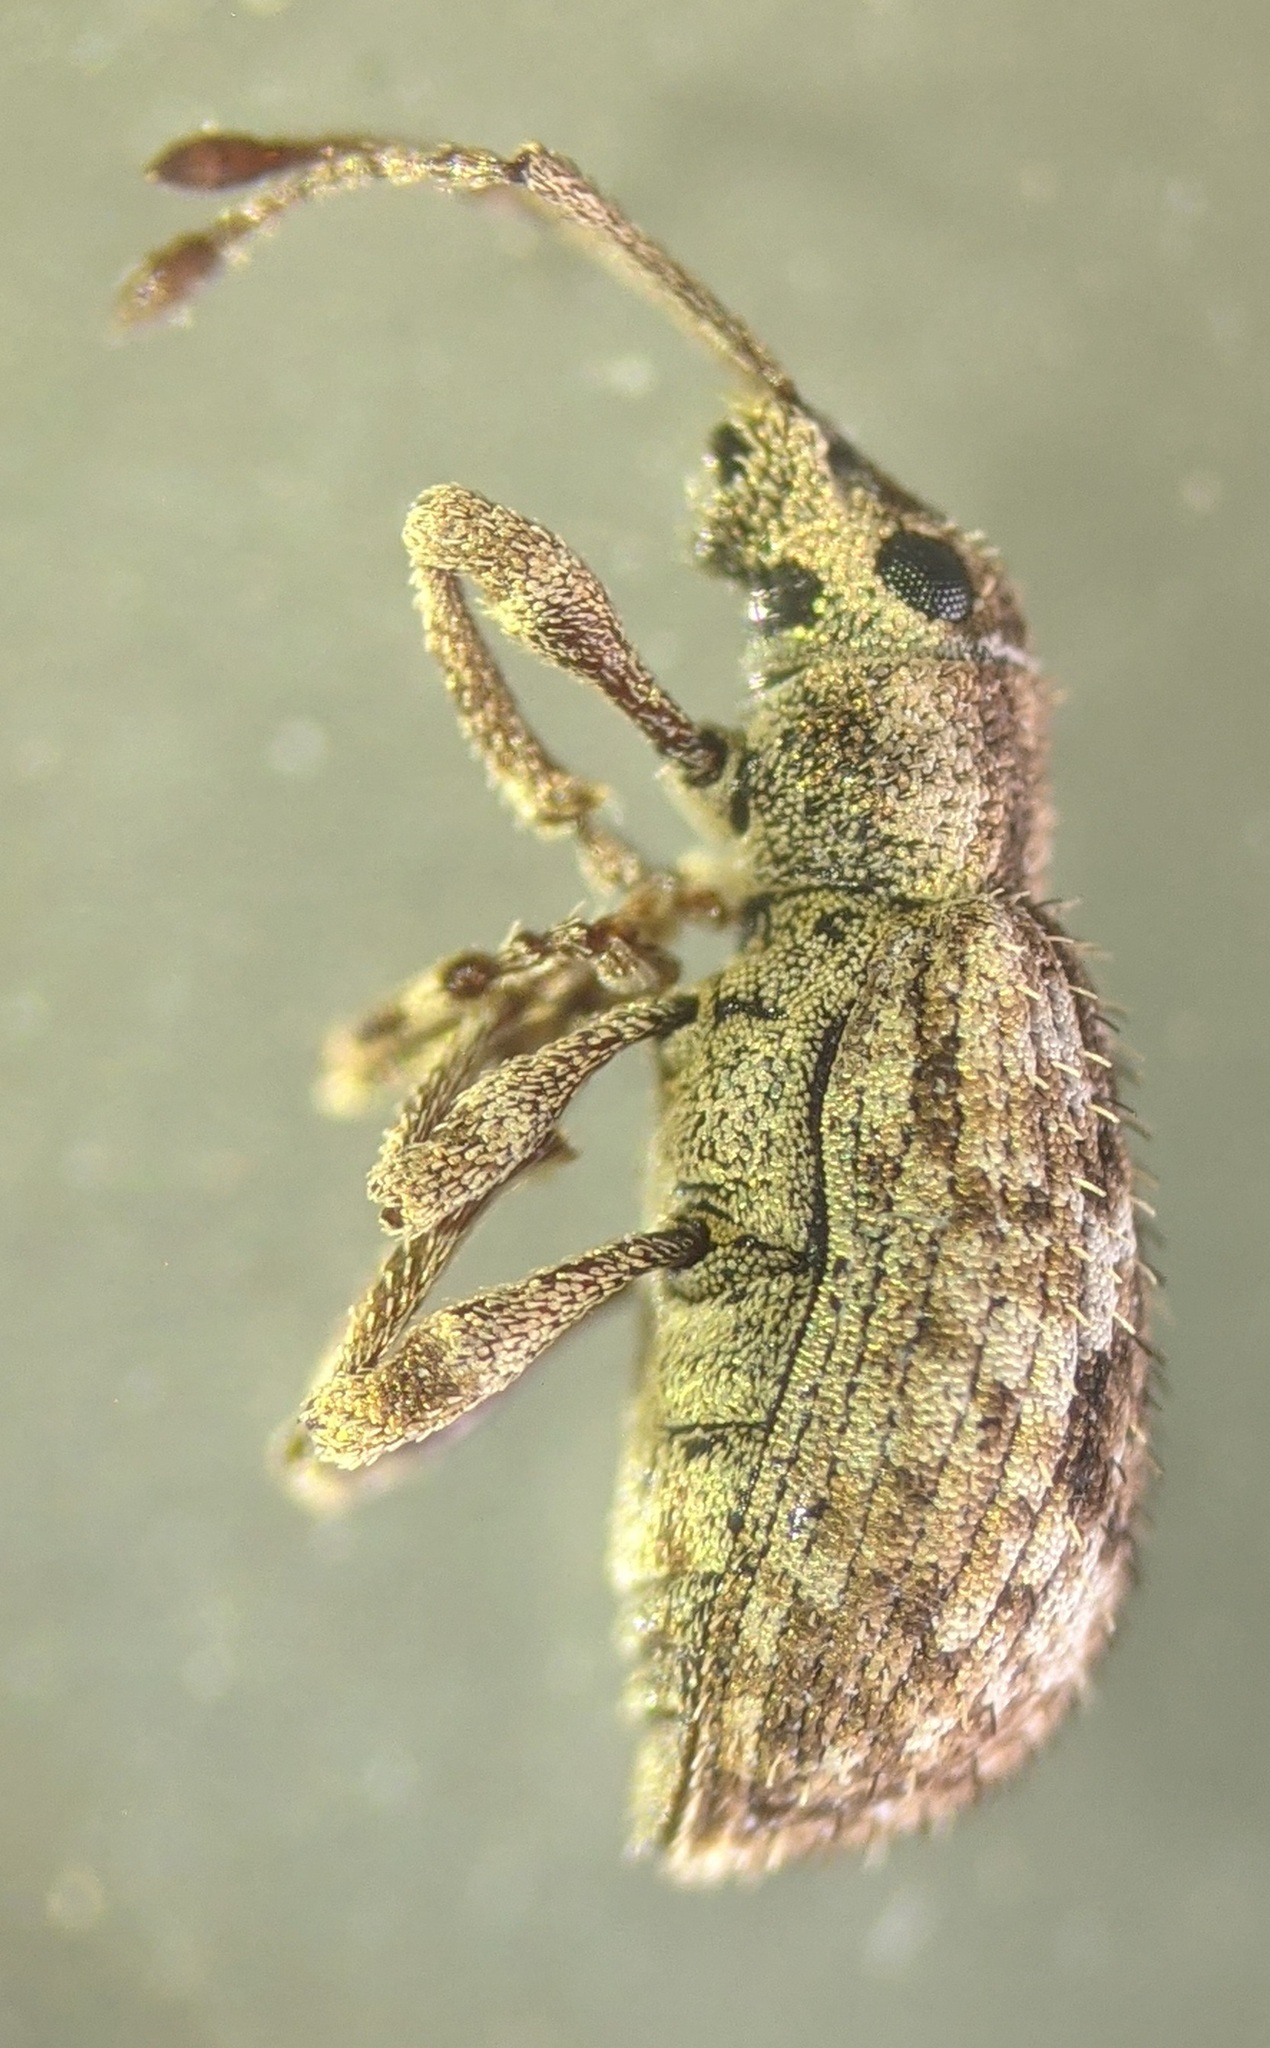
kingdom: Animalia
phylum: Arthropoda
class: Insecta
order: Coleoptera
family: Curculionidae
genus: Pseudoedophrys
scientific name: Pseudoedophrys hilleri
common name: Weevil
